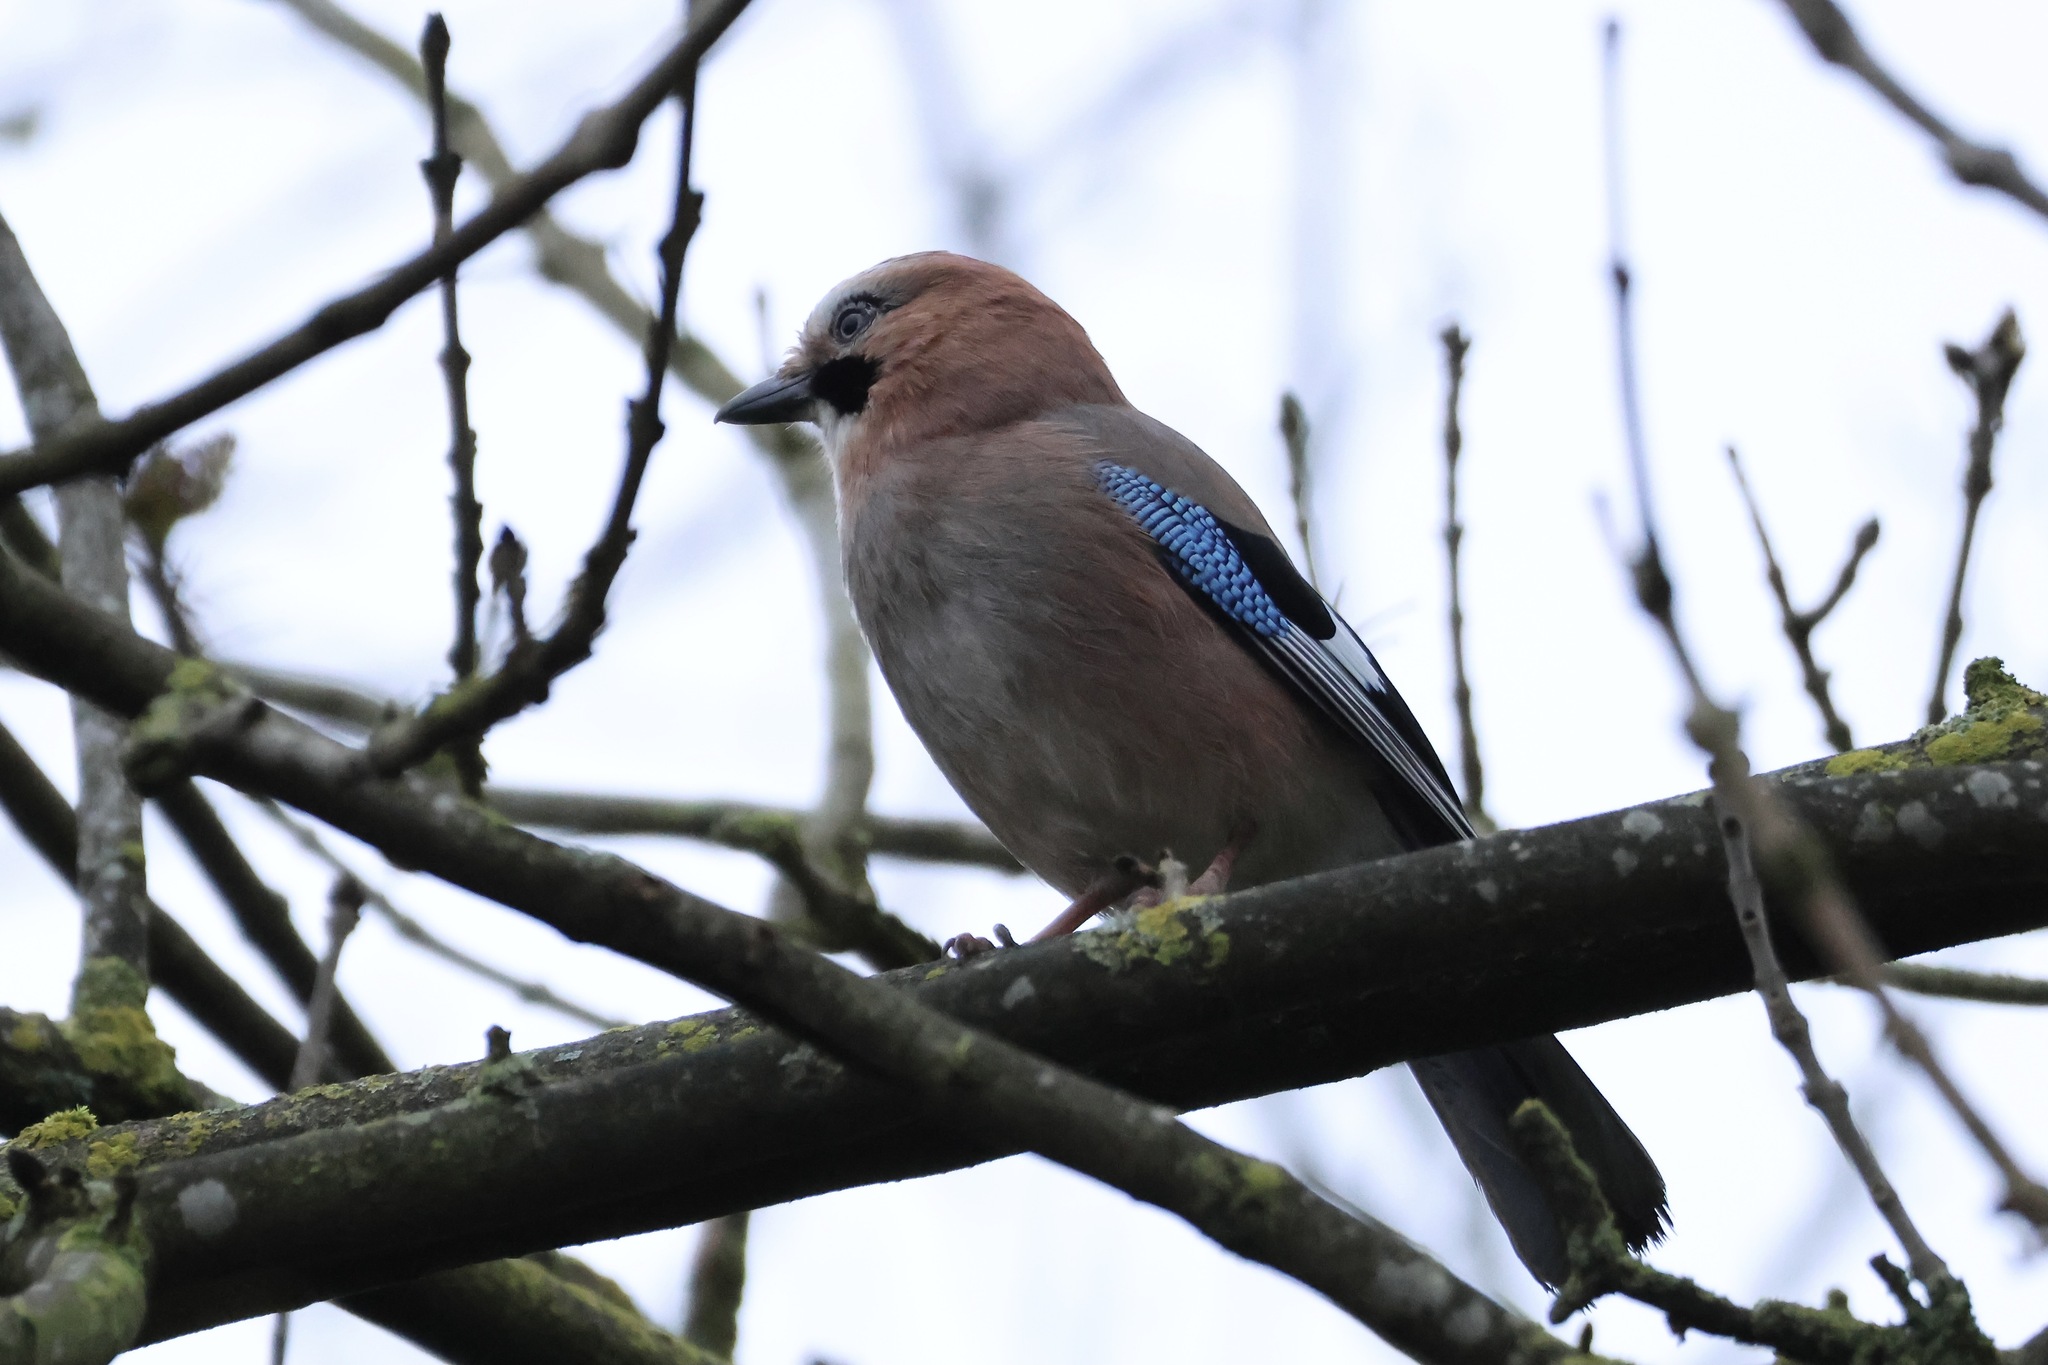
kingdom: Animalia
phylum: Chordata
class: Aves
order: Passeriformes
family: Corvidae
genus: Garrulus
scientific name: Garrulus glandarius
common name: Eurasian jay
